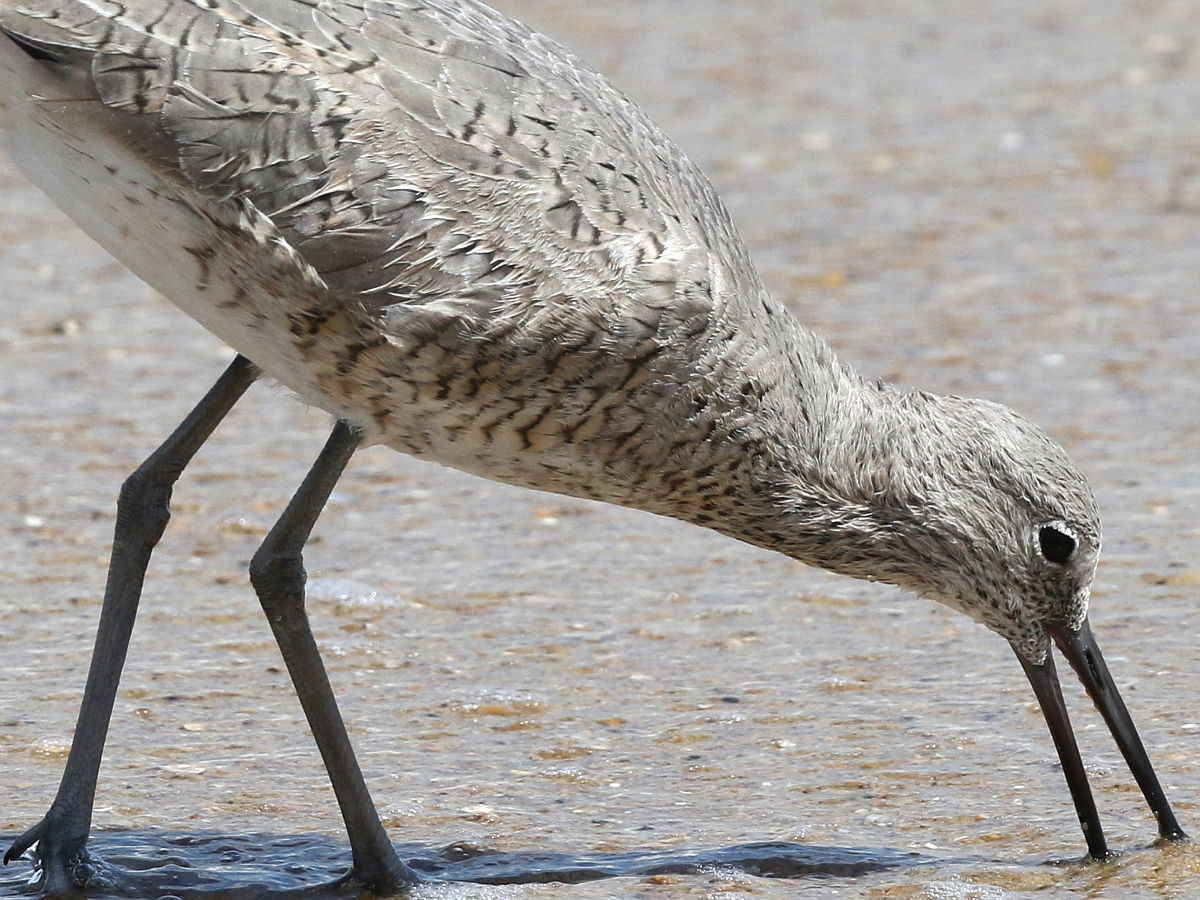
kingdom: Animalia
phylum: Chordata
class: Aves
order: Charadriiformes
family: Scolopacidae
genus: Tringa
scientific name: Tringa semipalmata
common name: Willet
